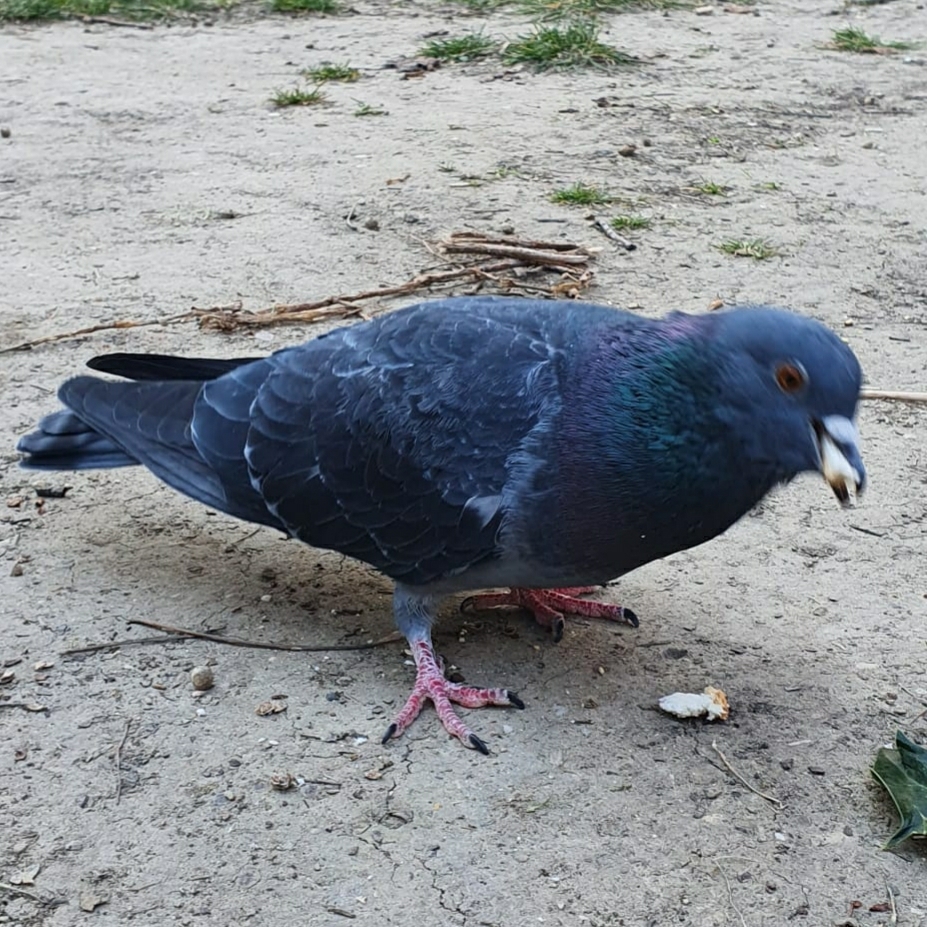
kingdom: Animalia
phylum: Chordata
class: Aves
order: Columbiformes
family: Columbidae
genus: Columba
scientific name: Columba livia
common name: Rock pigeon
